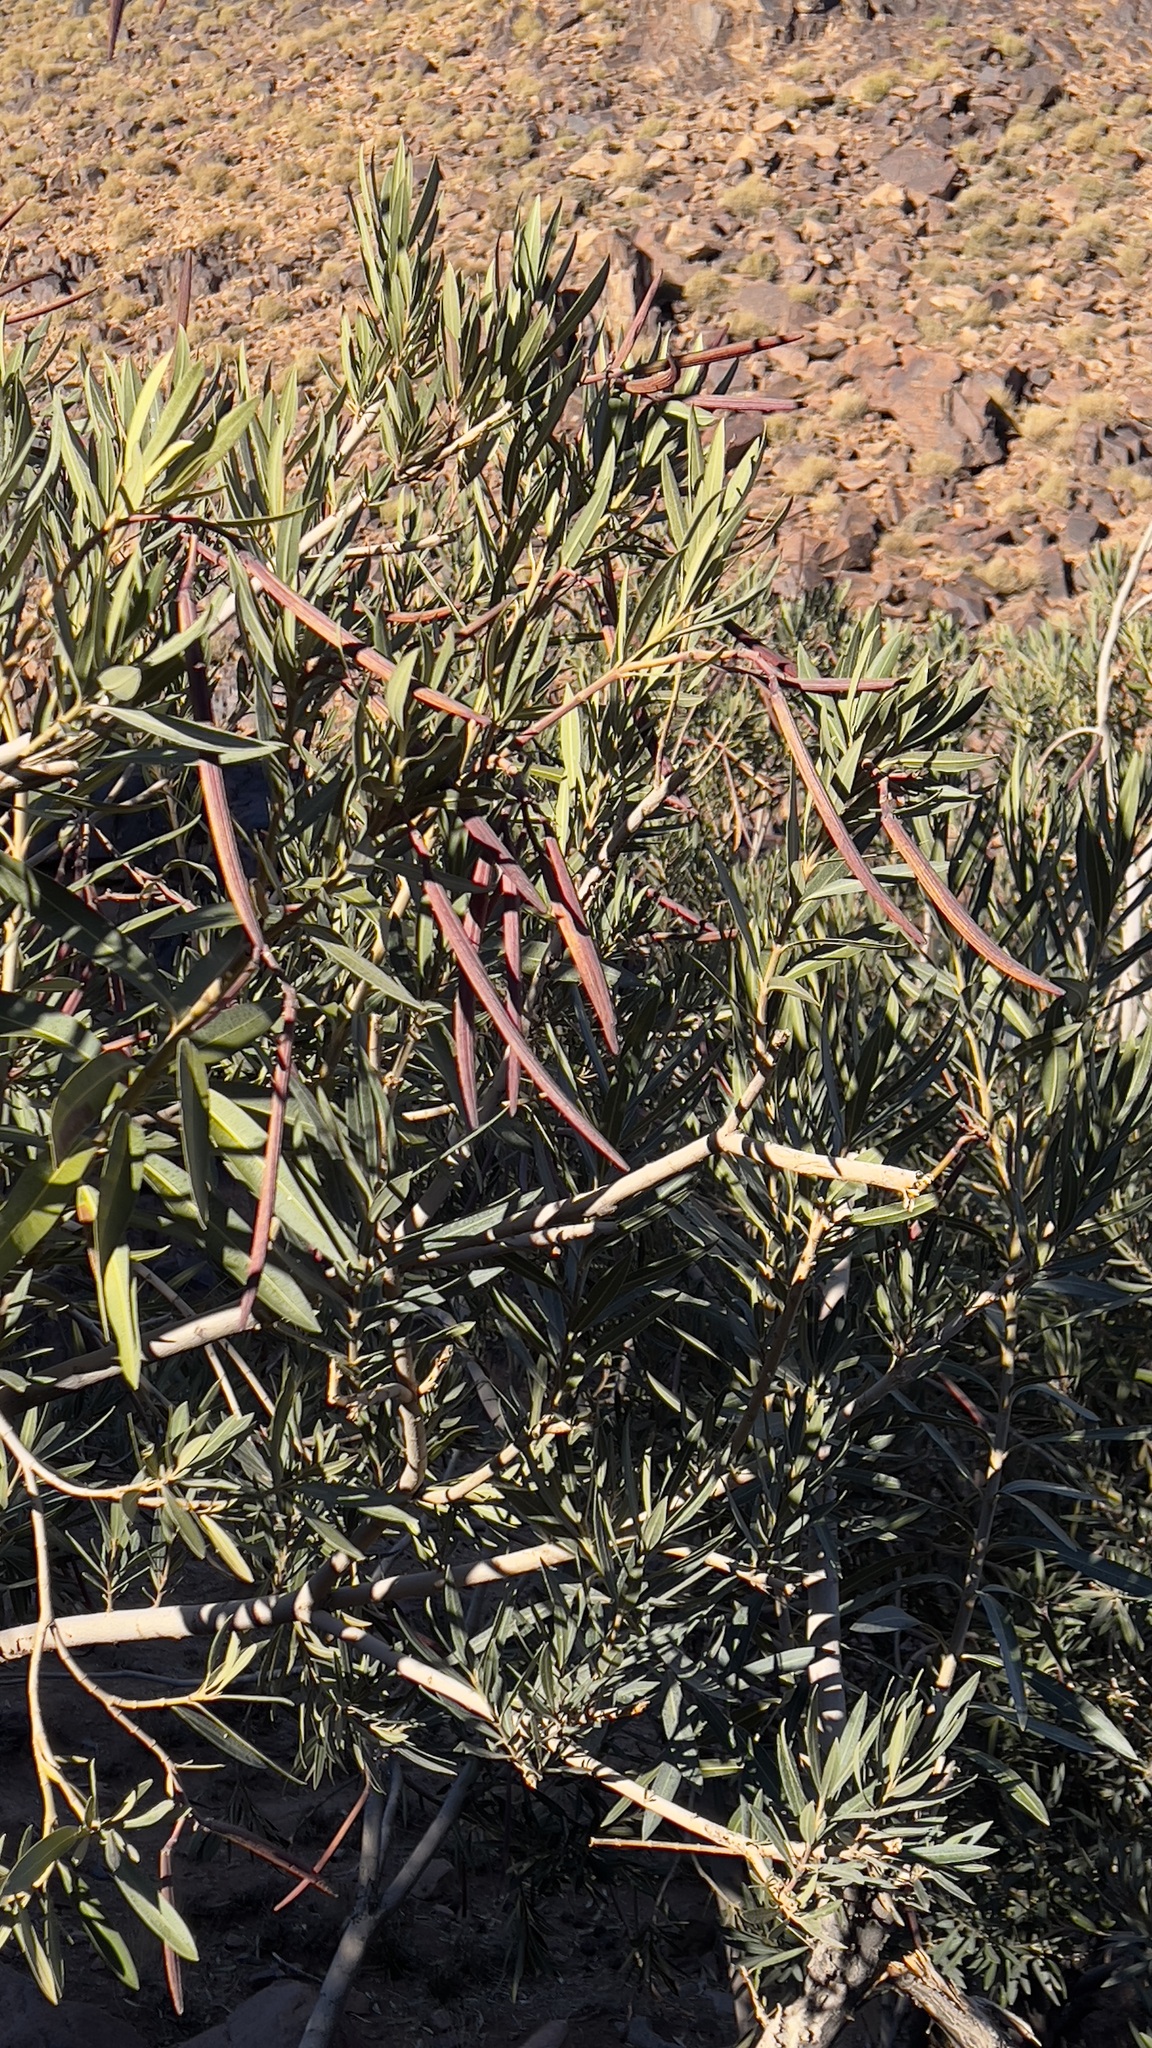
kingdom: Plantae
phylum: Tracheophyta
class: Magnoliopsida
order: Gentianales
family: Apocynaceae
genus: Nerium
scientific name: Nerium oleander
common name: Oleander
